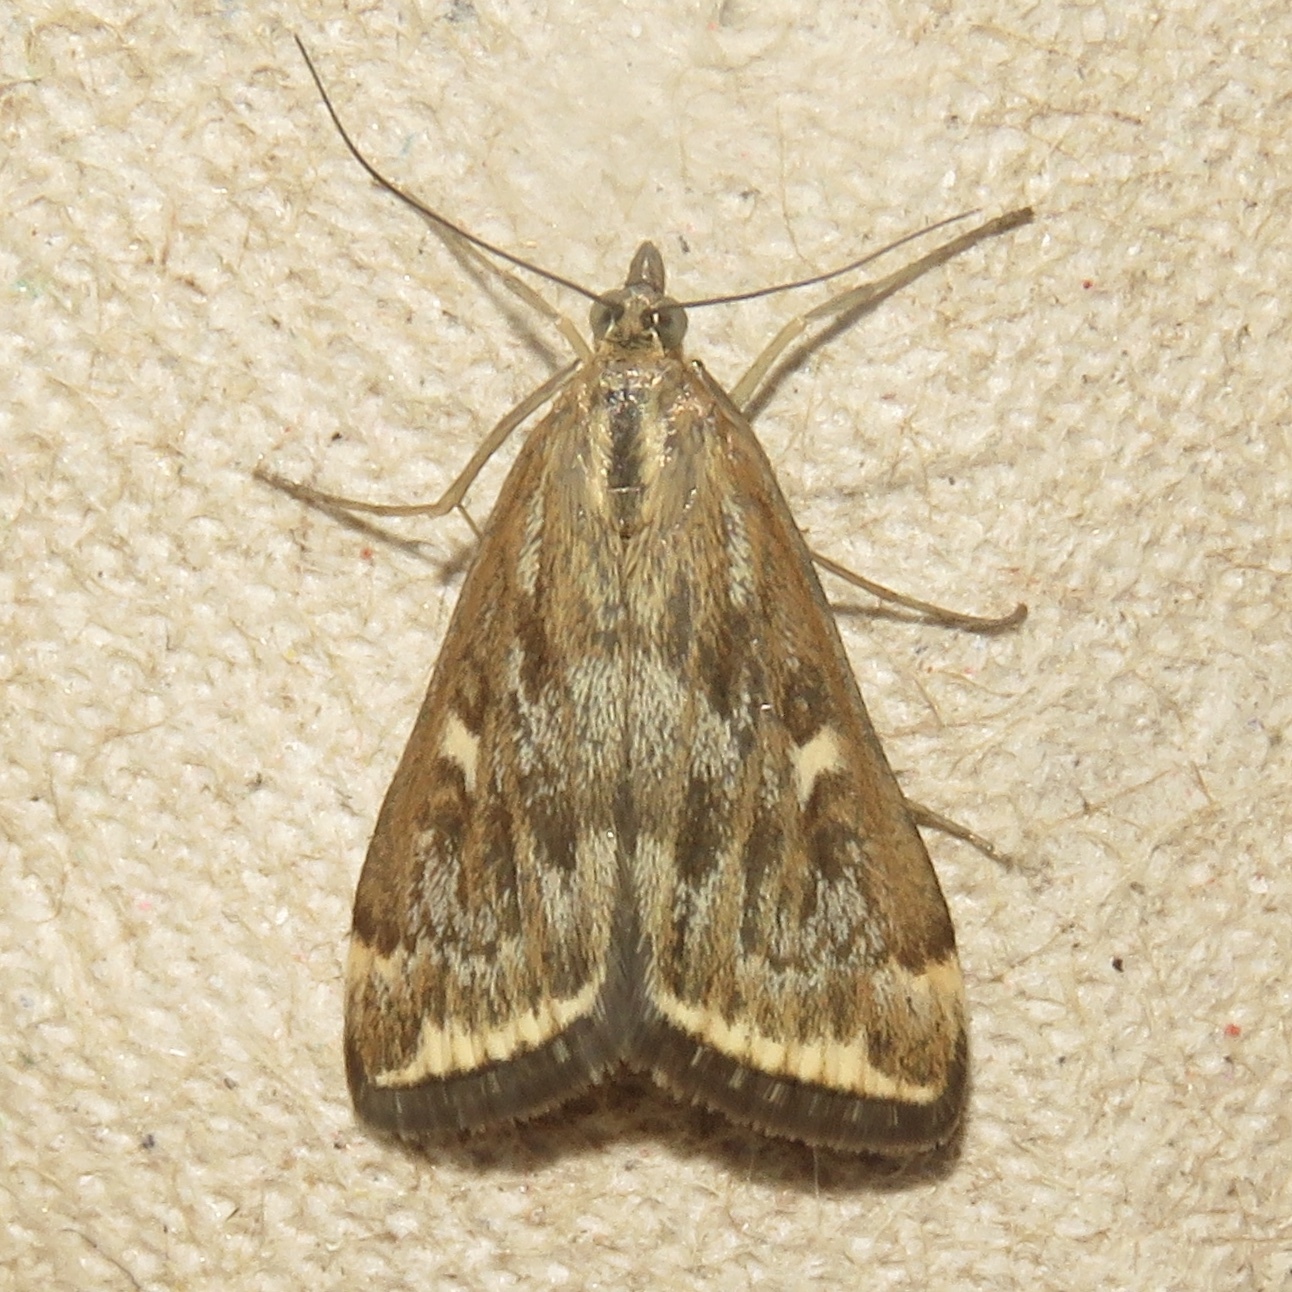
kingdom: Animalia
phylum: Arthropoda
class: Insecta
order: Lepidoptera
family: Crambidae
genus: Loxostege
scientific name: Loxostege
